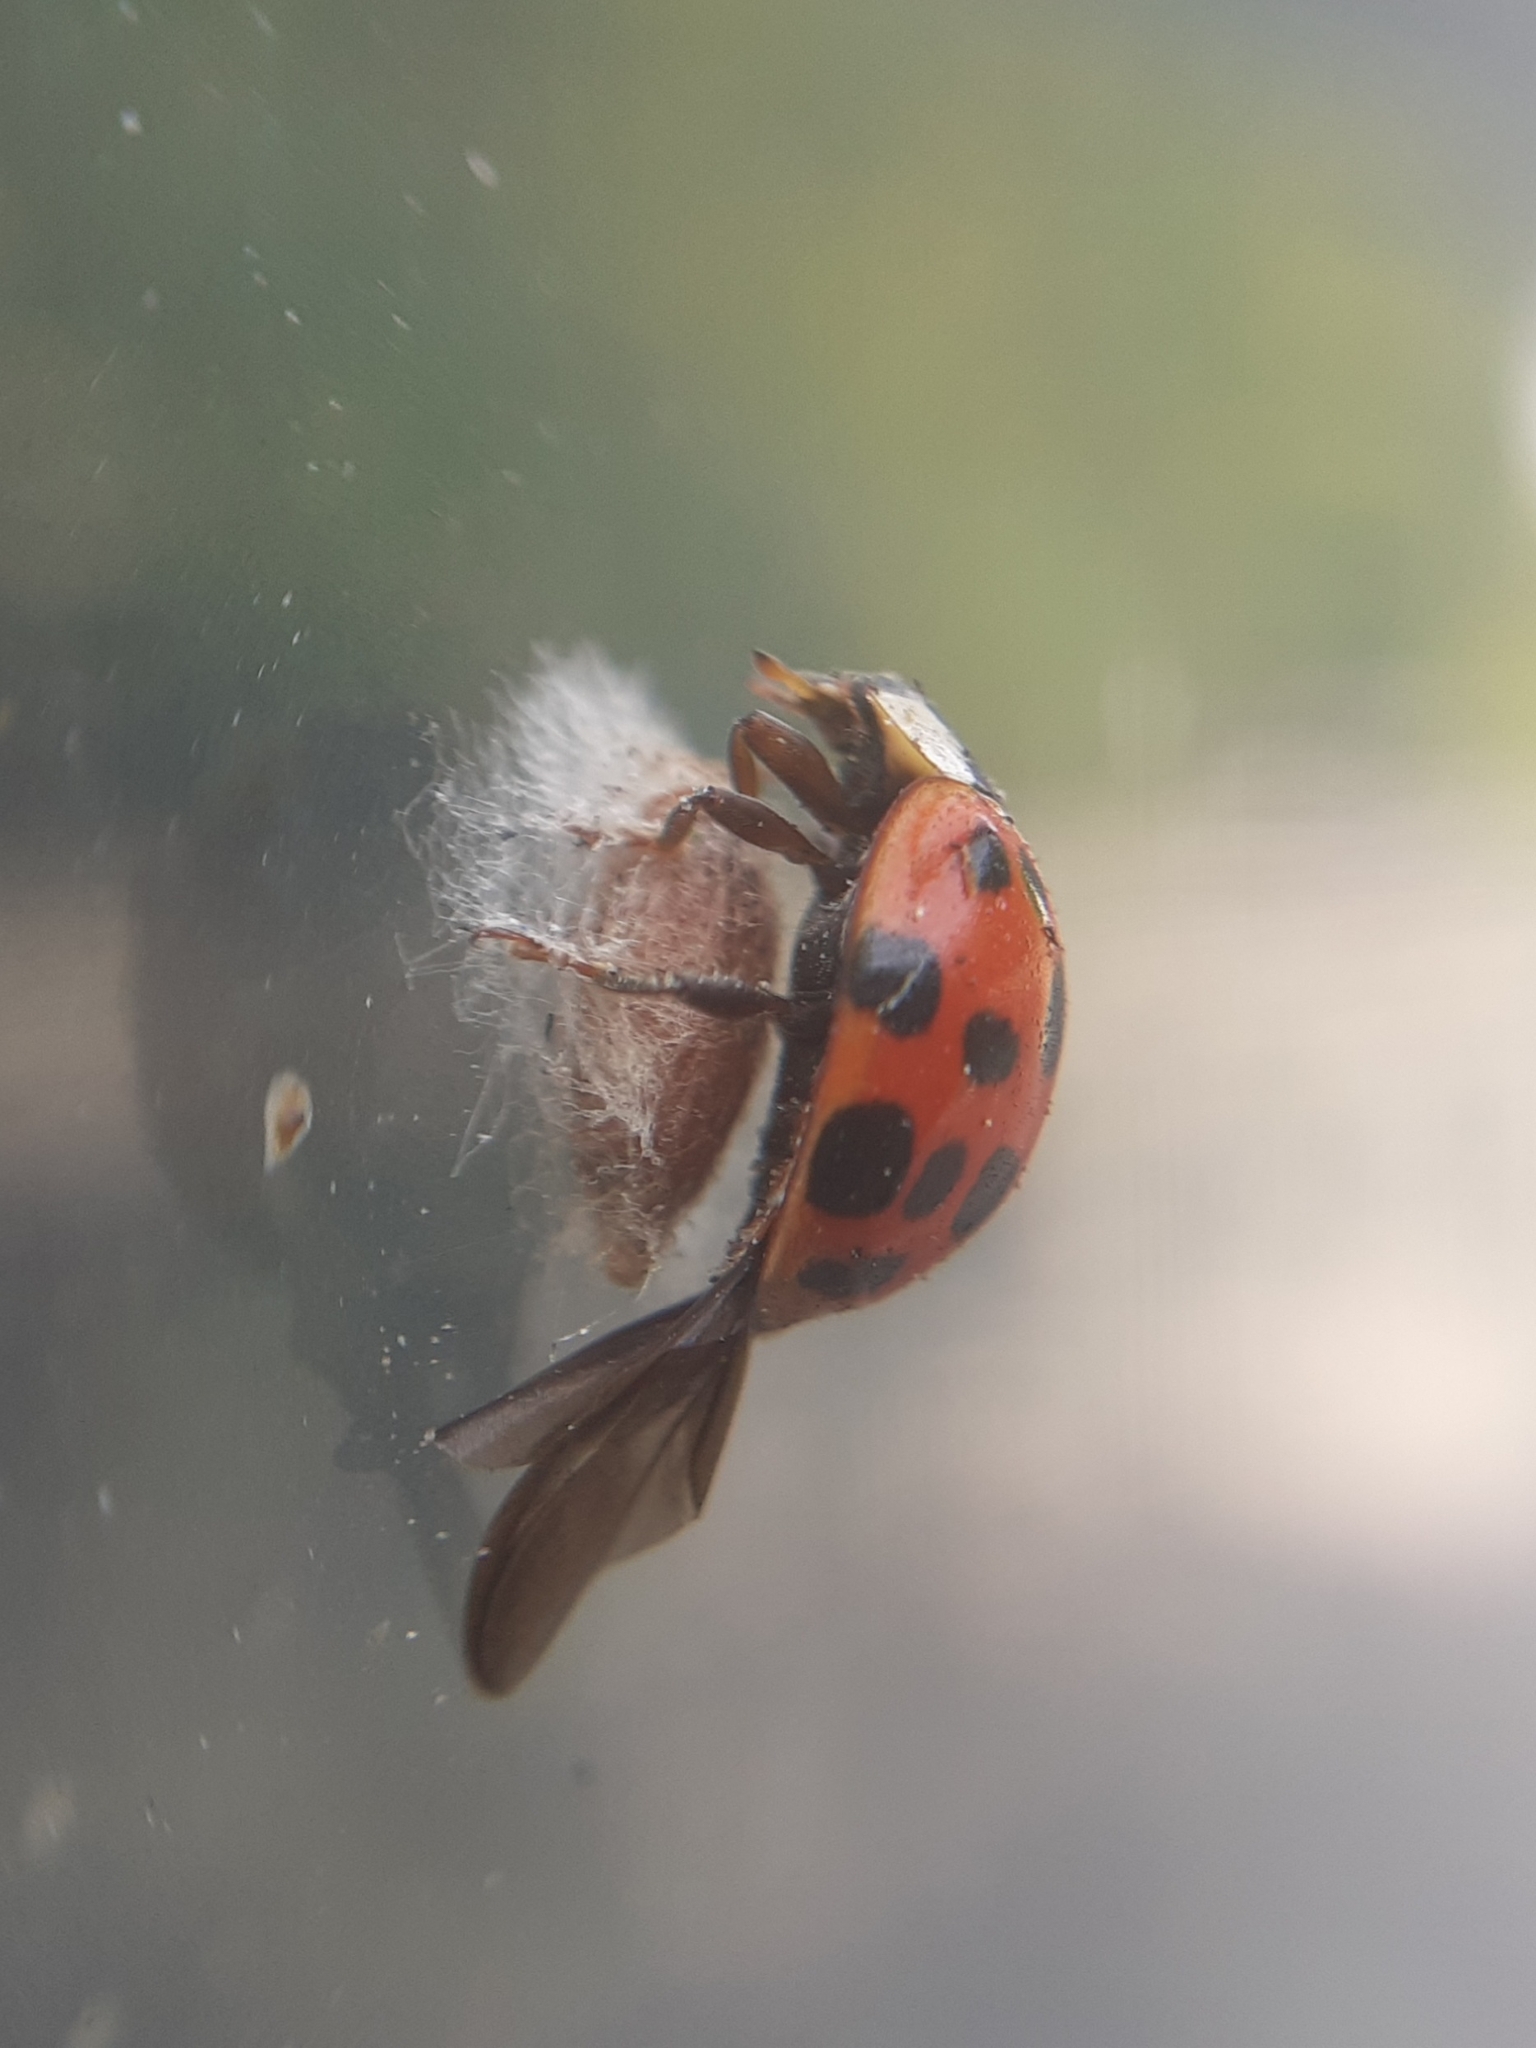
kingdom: Animalia
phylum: Arthropoda
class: Insecta
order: Hymenoptera
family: Braconidae
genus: Dinocampus
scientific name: Dinocampus coccinellae
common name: Braconid wasp
